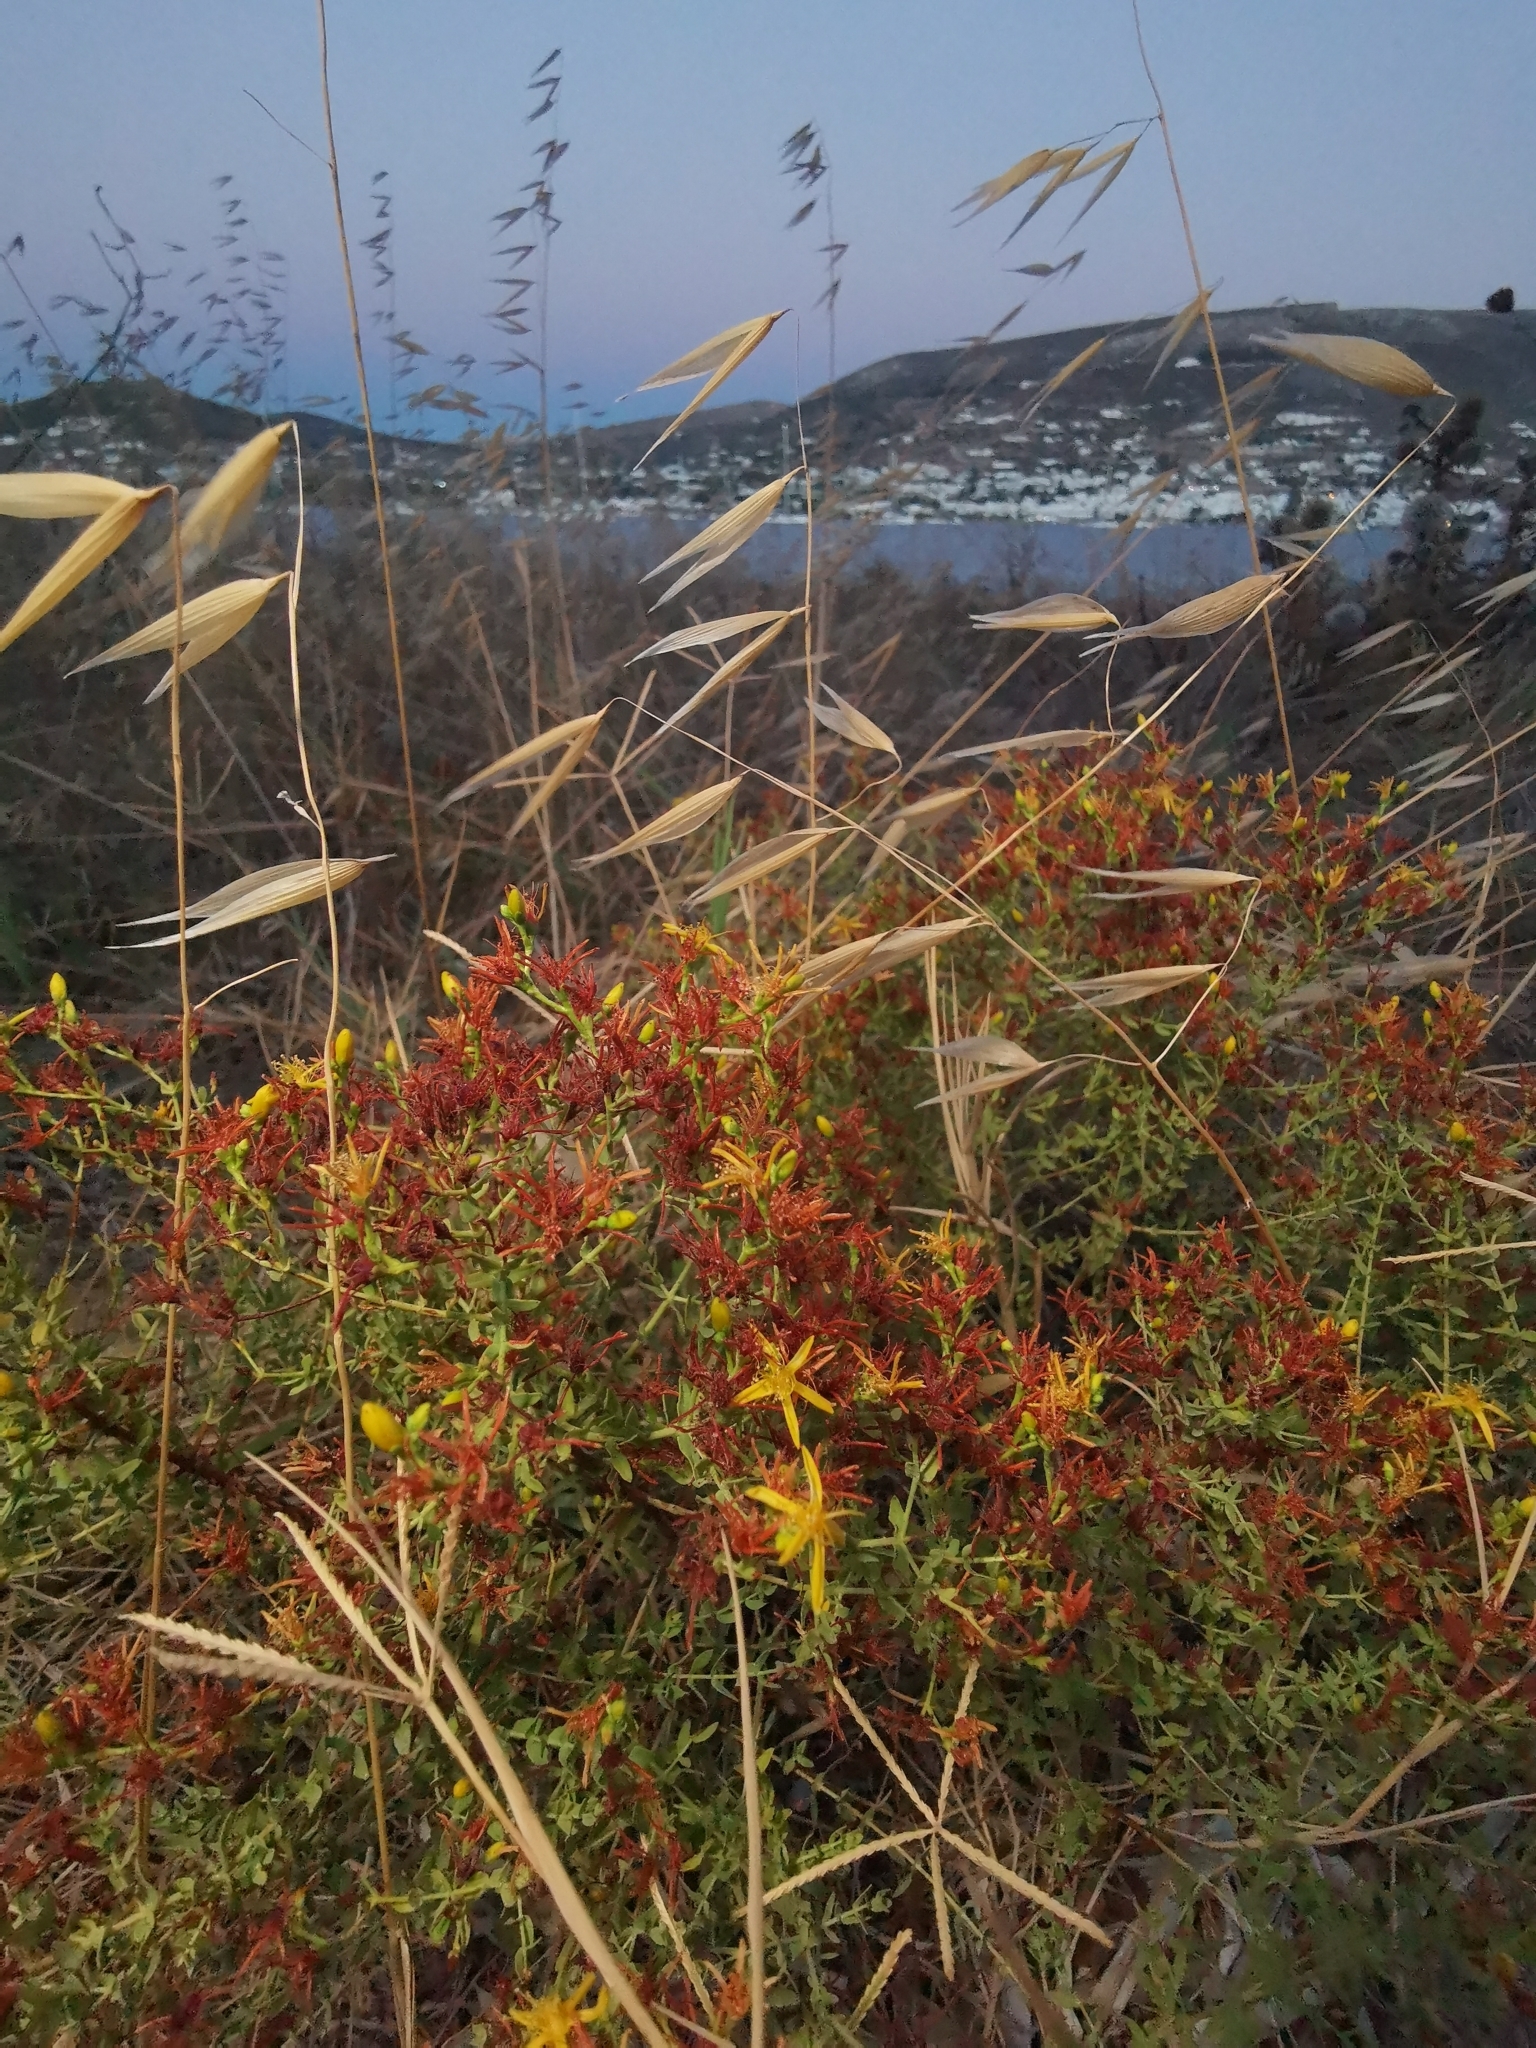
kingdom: Plantae
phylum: Tracheophyta
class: Magnoliopsida
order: Malpighiales
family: Hypericaceae
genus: Hypericum
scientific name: Hypericum triquetrifolium
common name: Tangled hypericum
